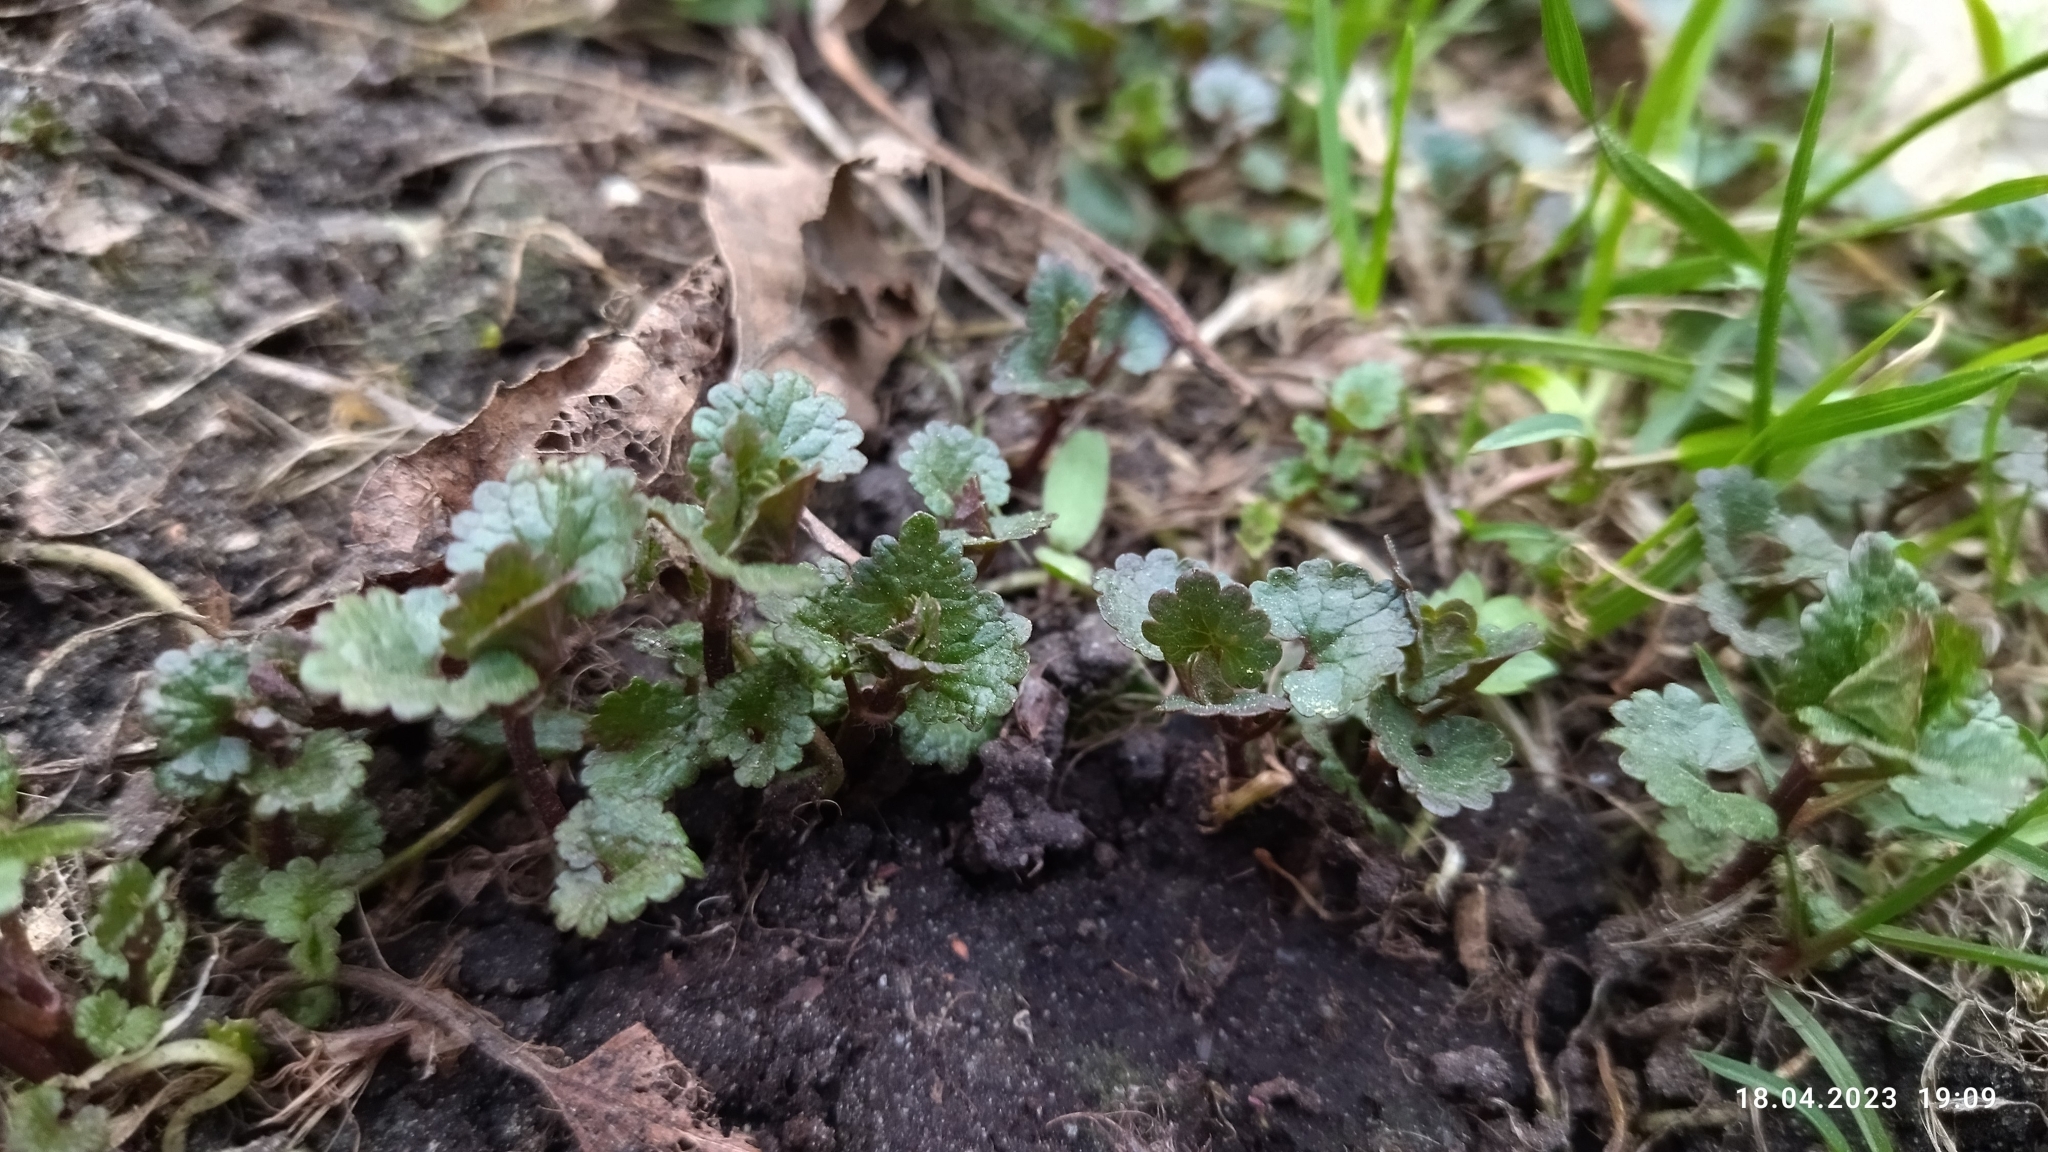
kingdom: Plantae
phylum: Tracheophyta
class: Magnoliopsida
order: Lamiales
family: Lamiaceae
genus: Glechoma
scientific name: Glechoma hederacea
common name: Ground ivy
